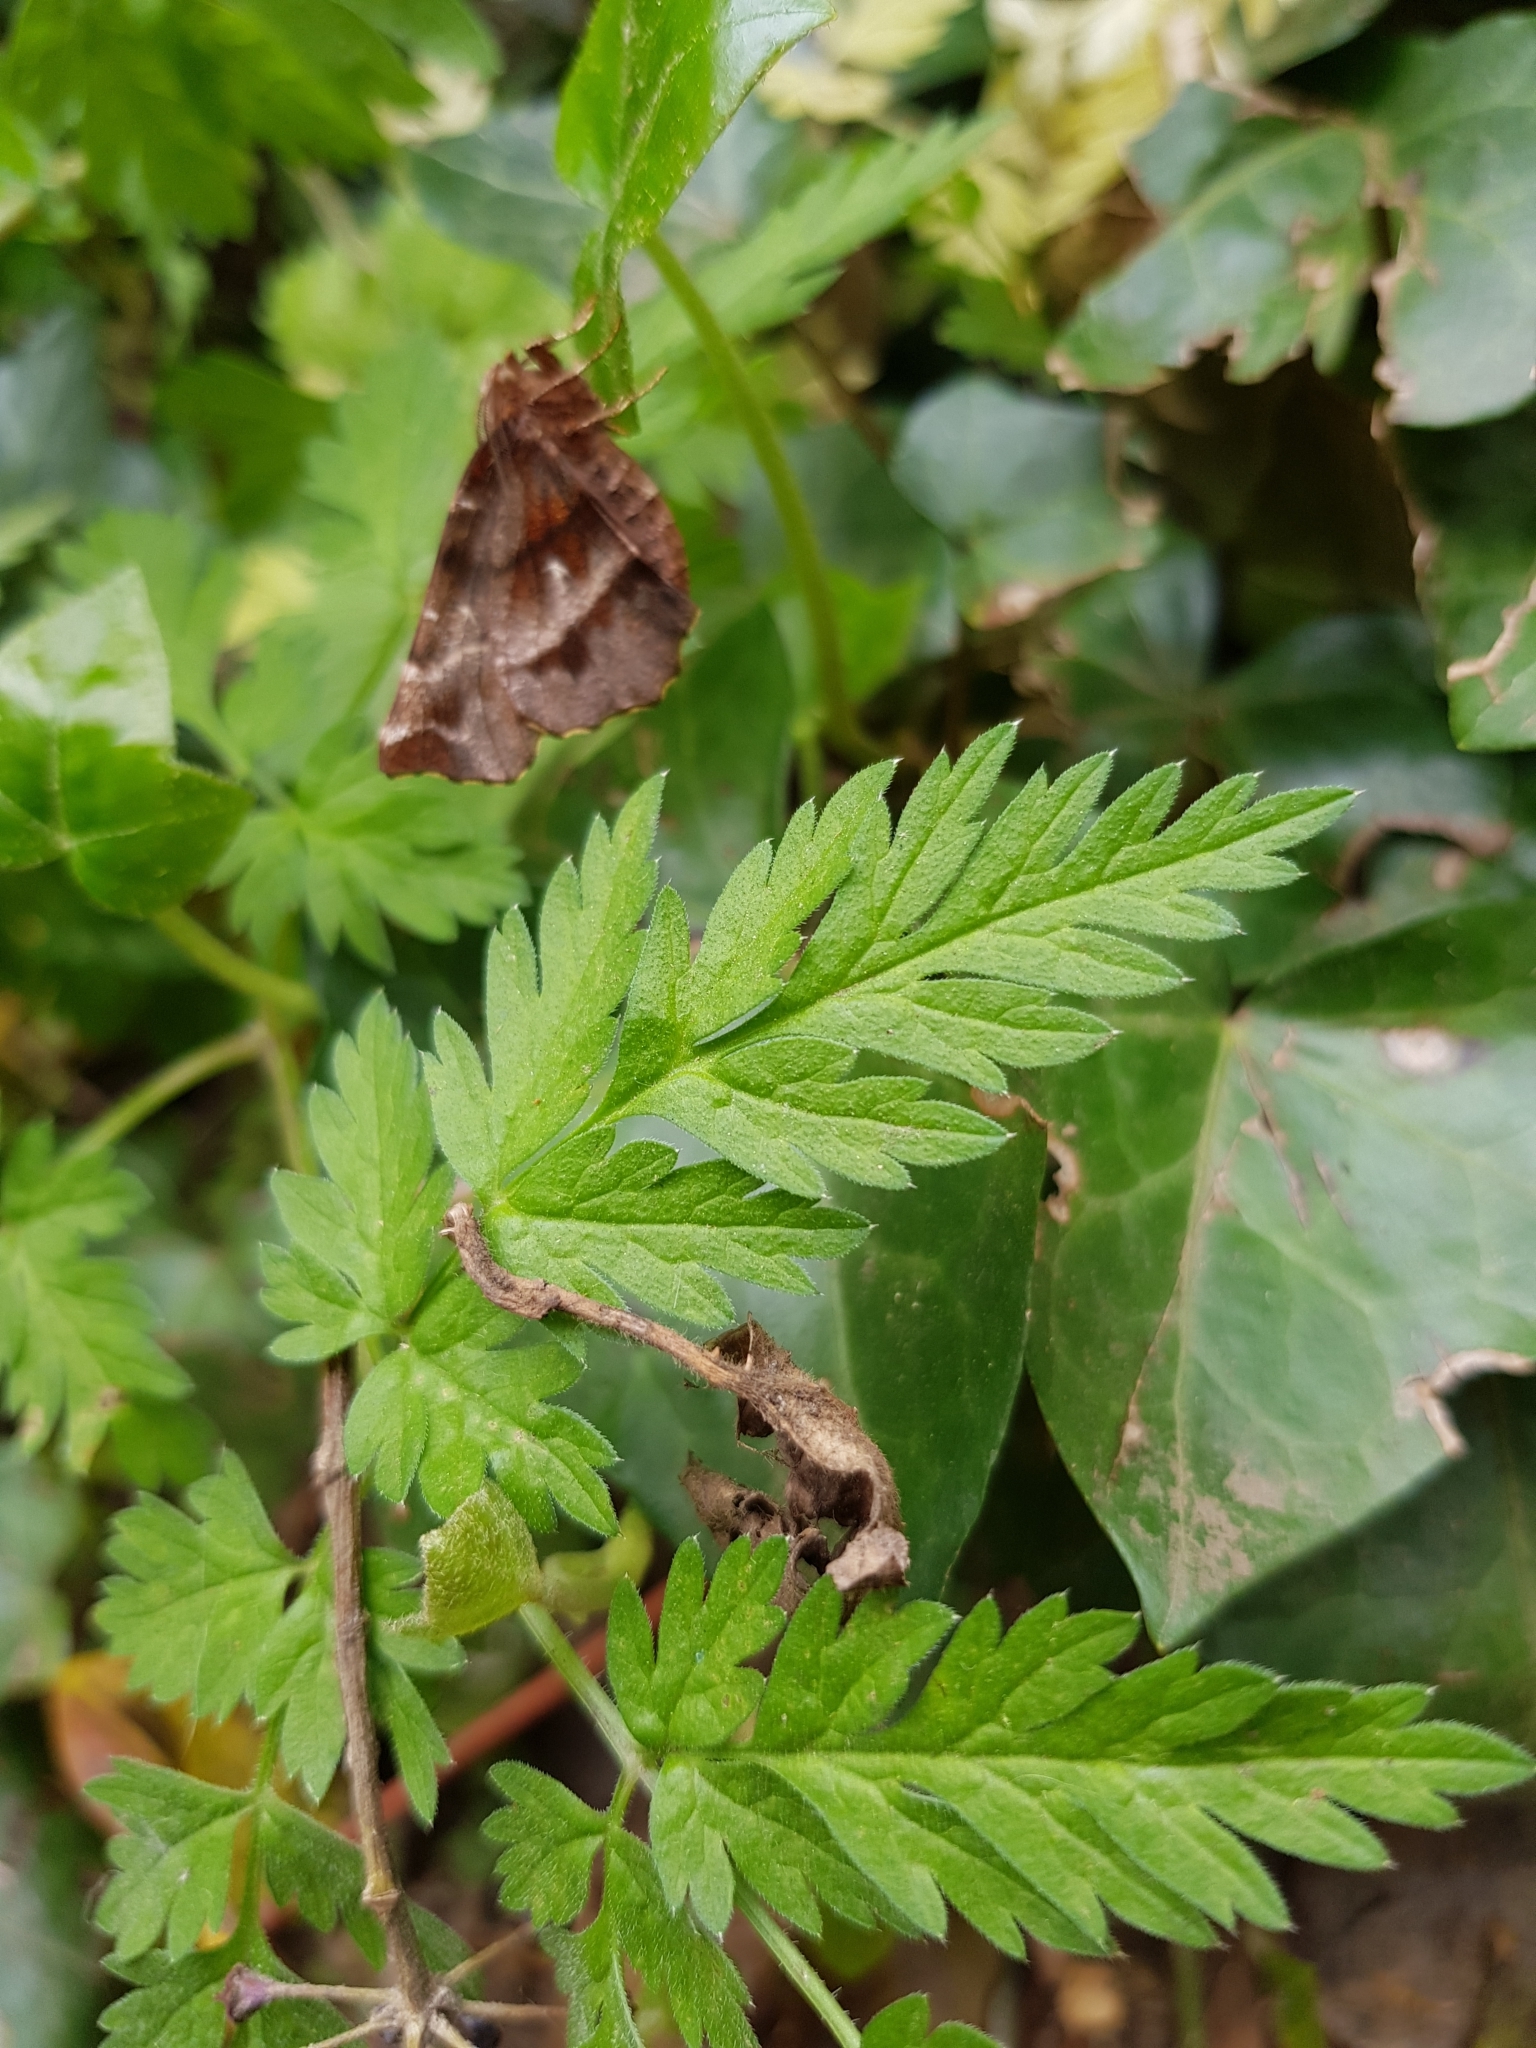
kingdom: Animalia
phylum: Arthropoda
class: Insecta
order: Lepidoptera
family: Geometridae
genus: Selenia
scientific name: Selenia dentaria
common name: Early thorn
